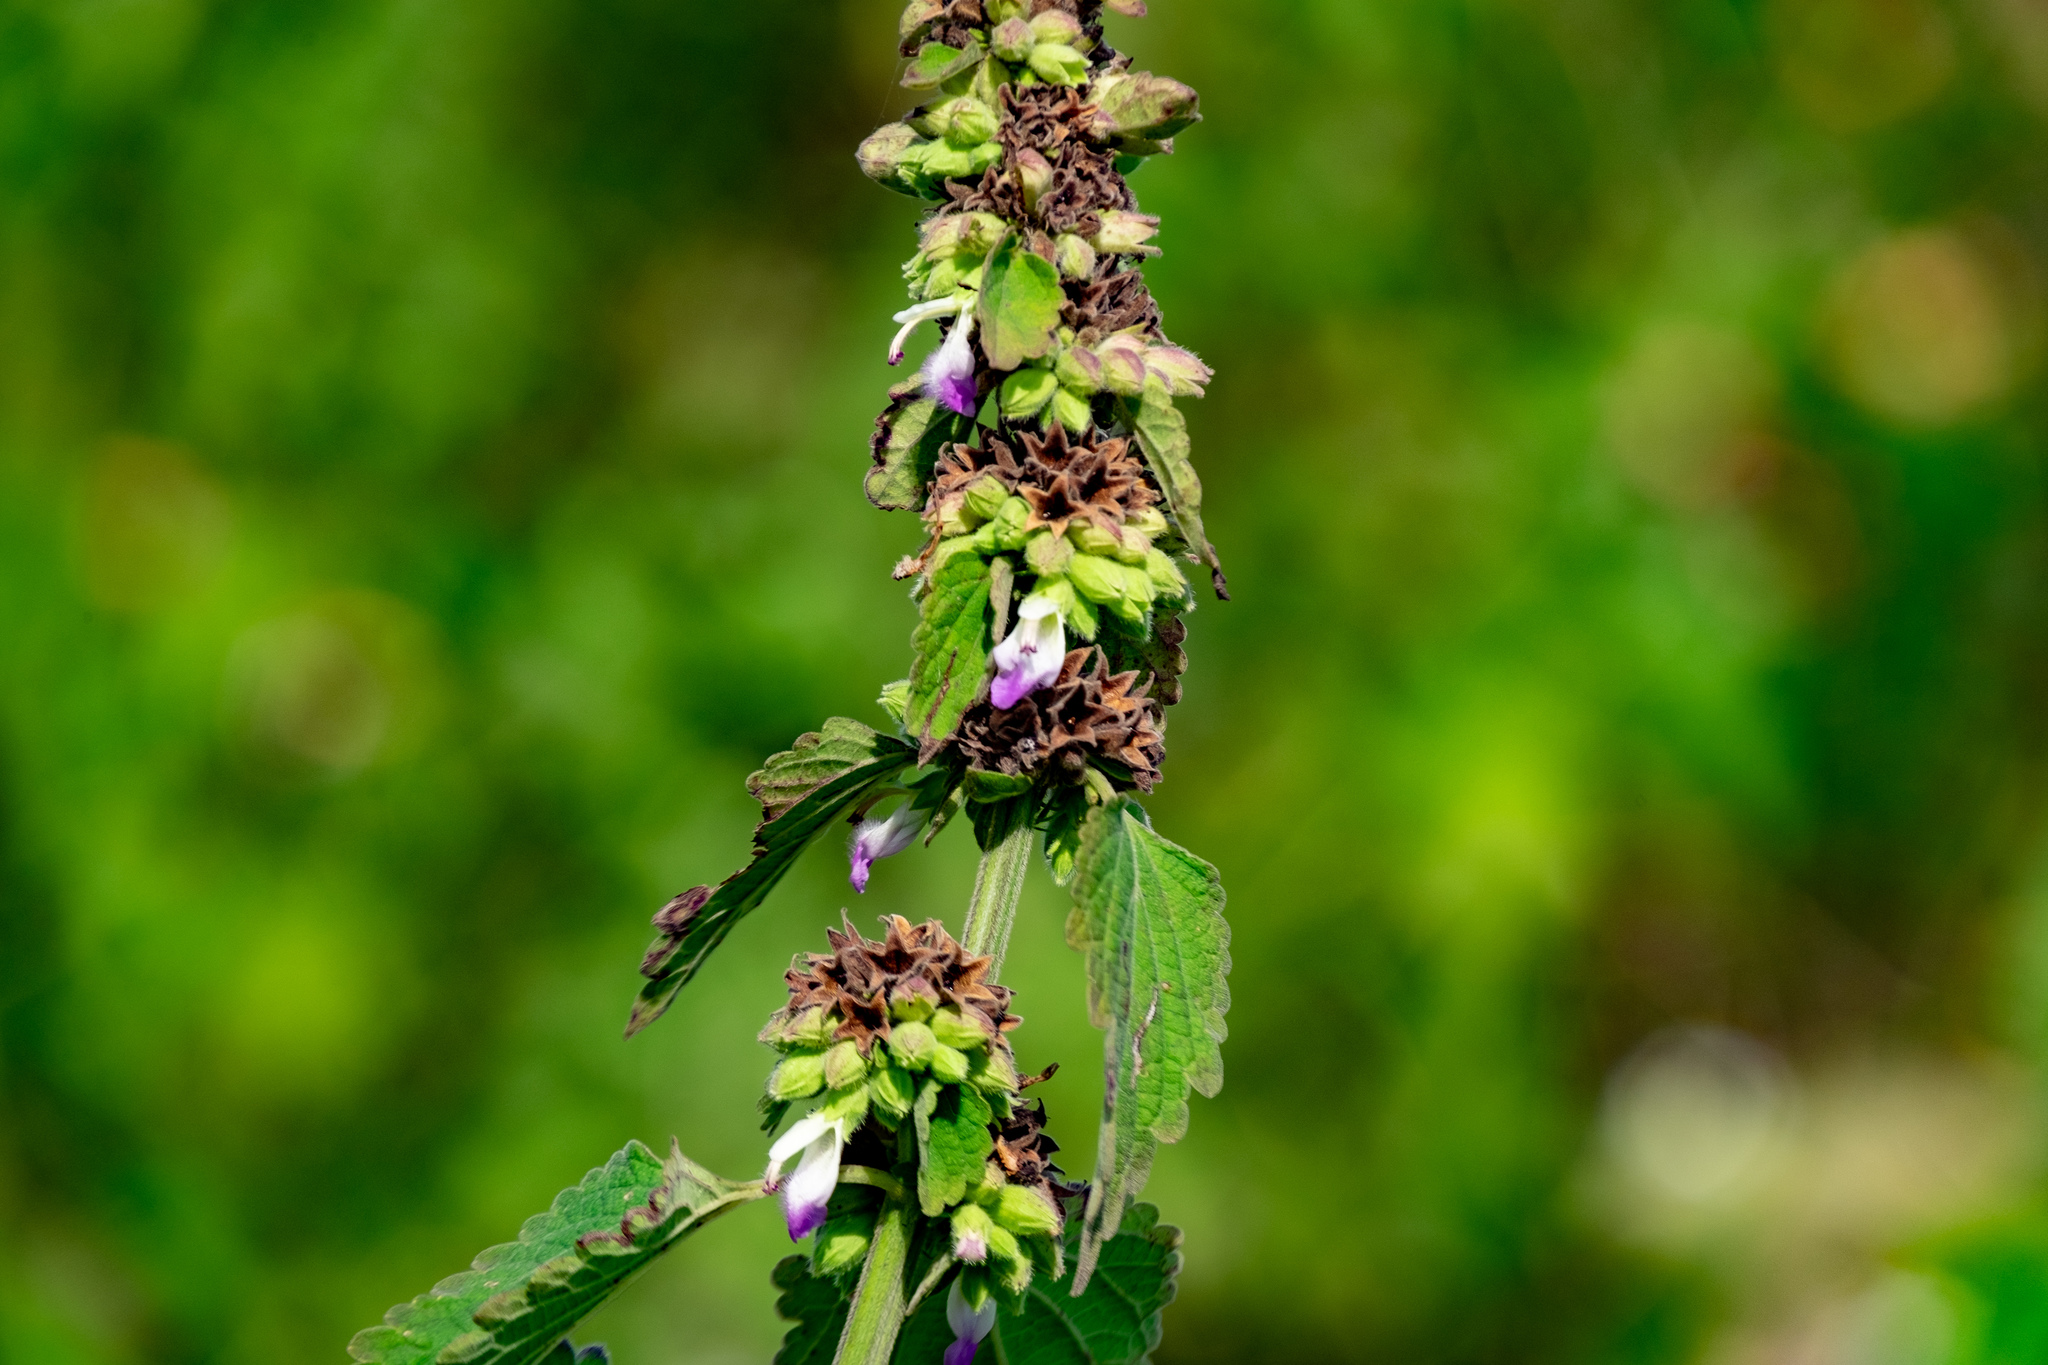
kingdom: Plantae
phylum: Tracheophyta
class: Magnoliopsida
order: Lamiales
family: Lamiaceae
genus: Anisomeles
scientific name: Anisomeles indica
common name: Catmint
